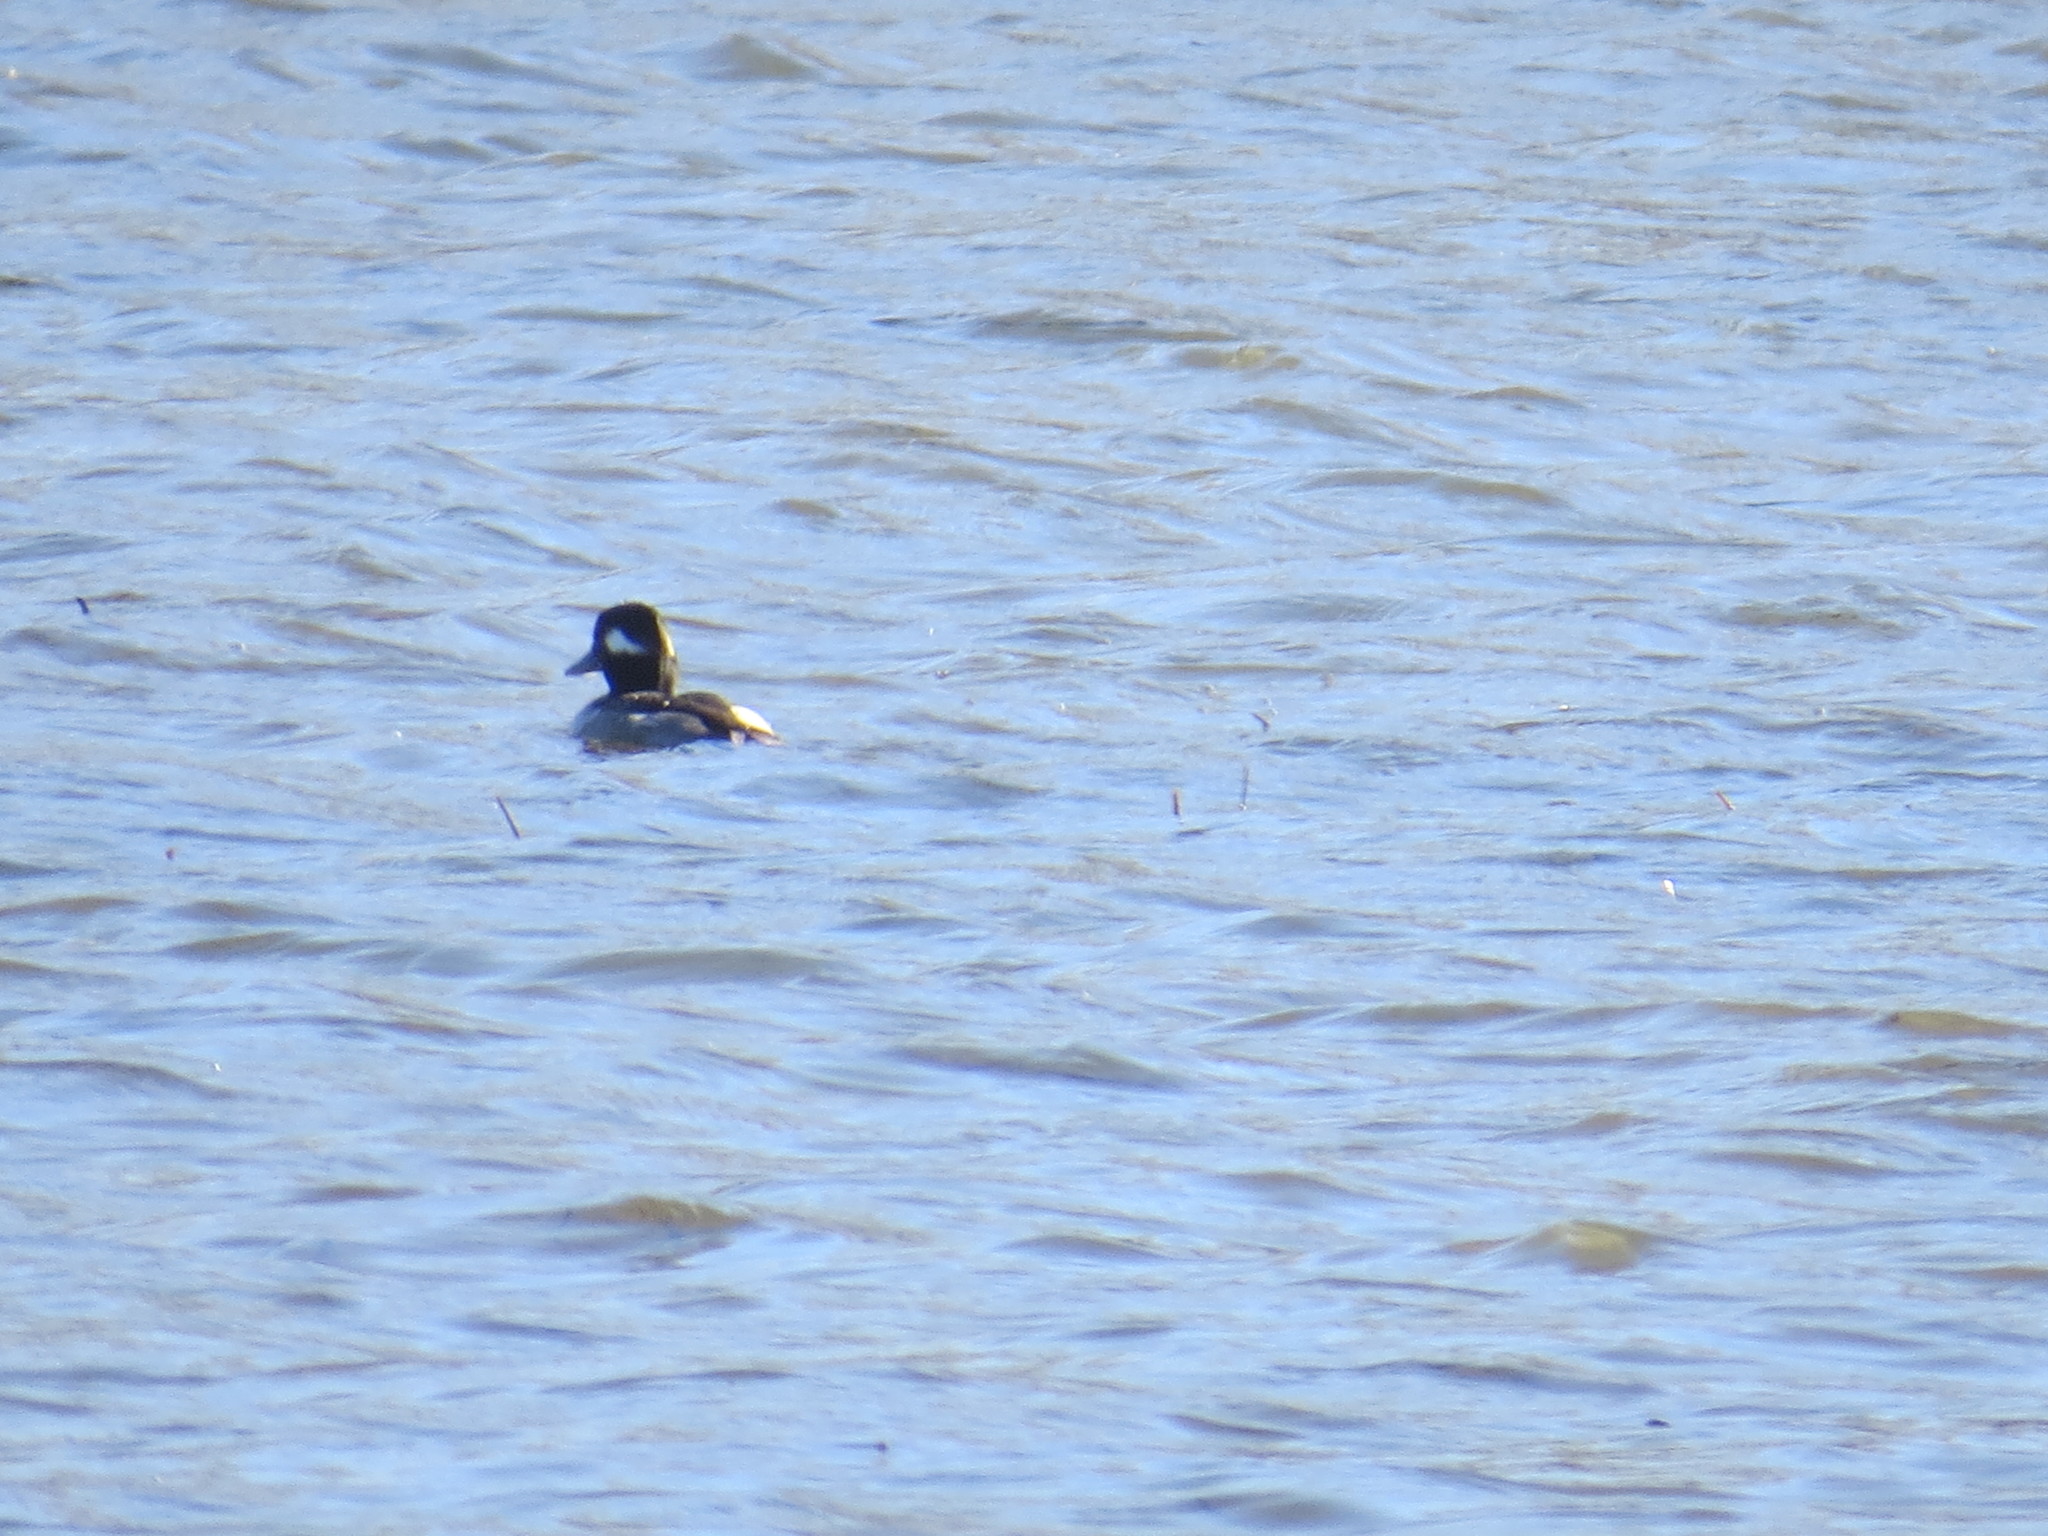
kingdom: Animalia
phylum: Chordata
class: Aves
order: Anseriformes
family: Anatidae
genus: Bucephala
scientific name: Bucephala albeola
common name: Bufflehead
